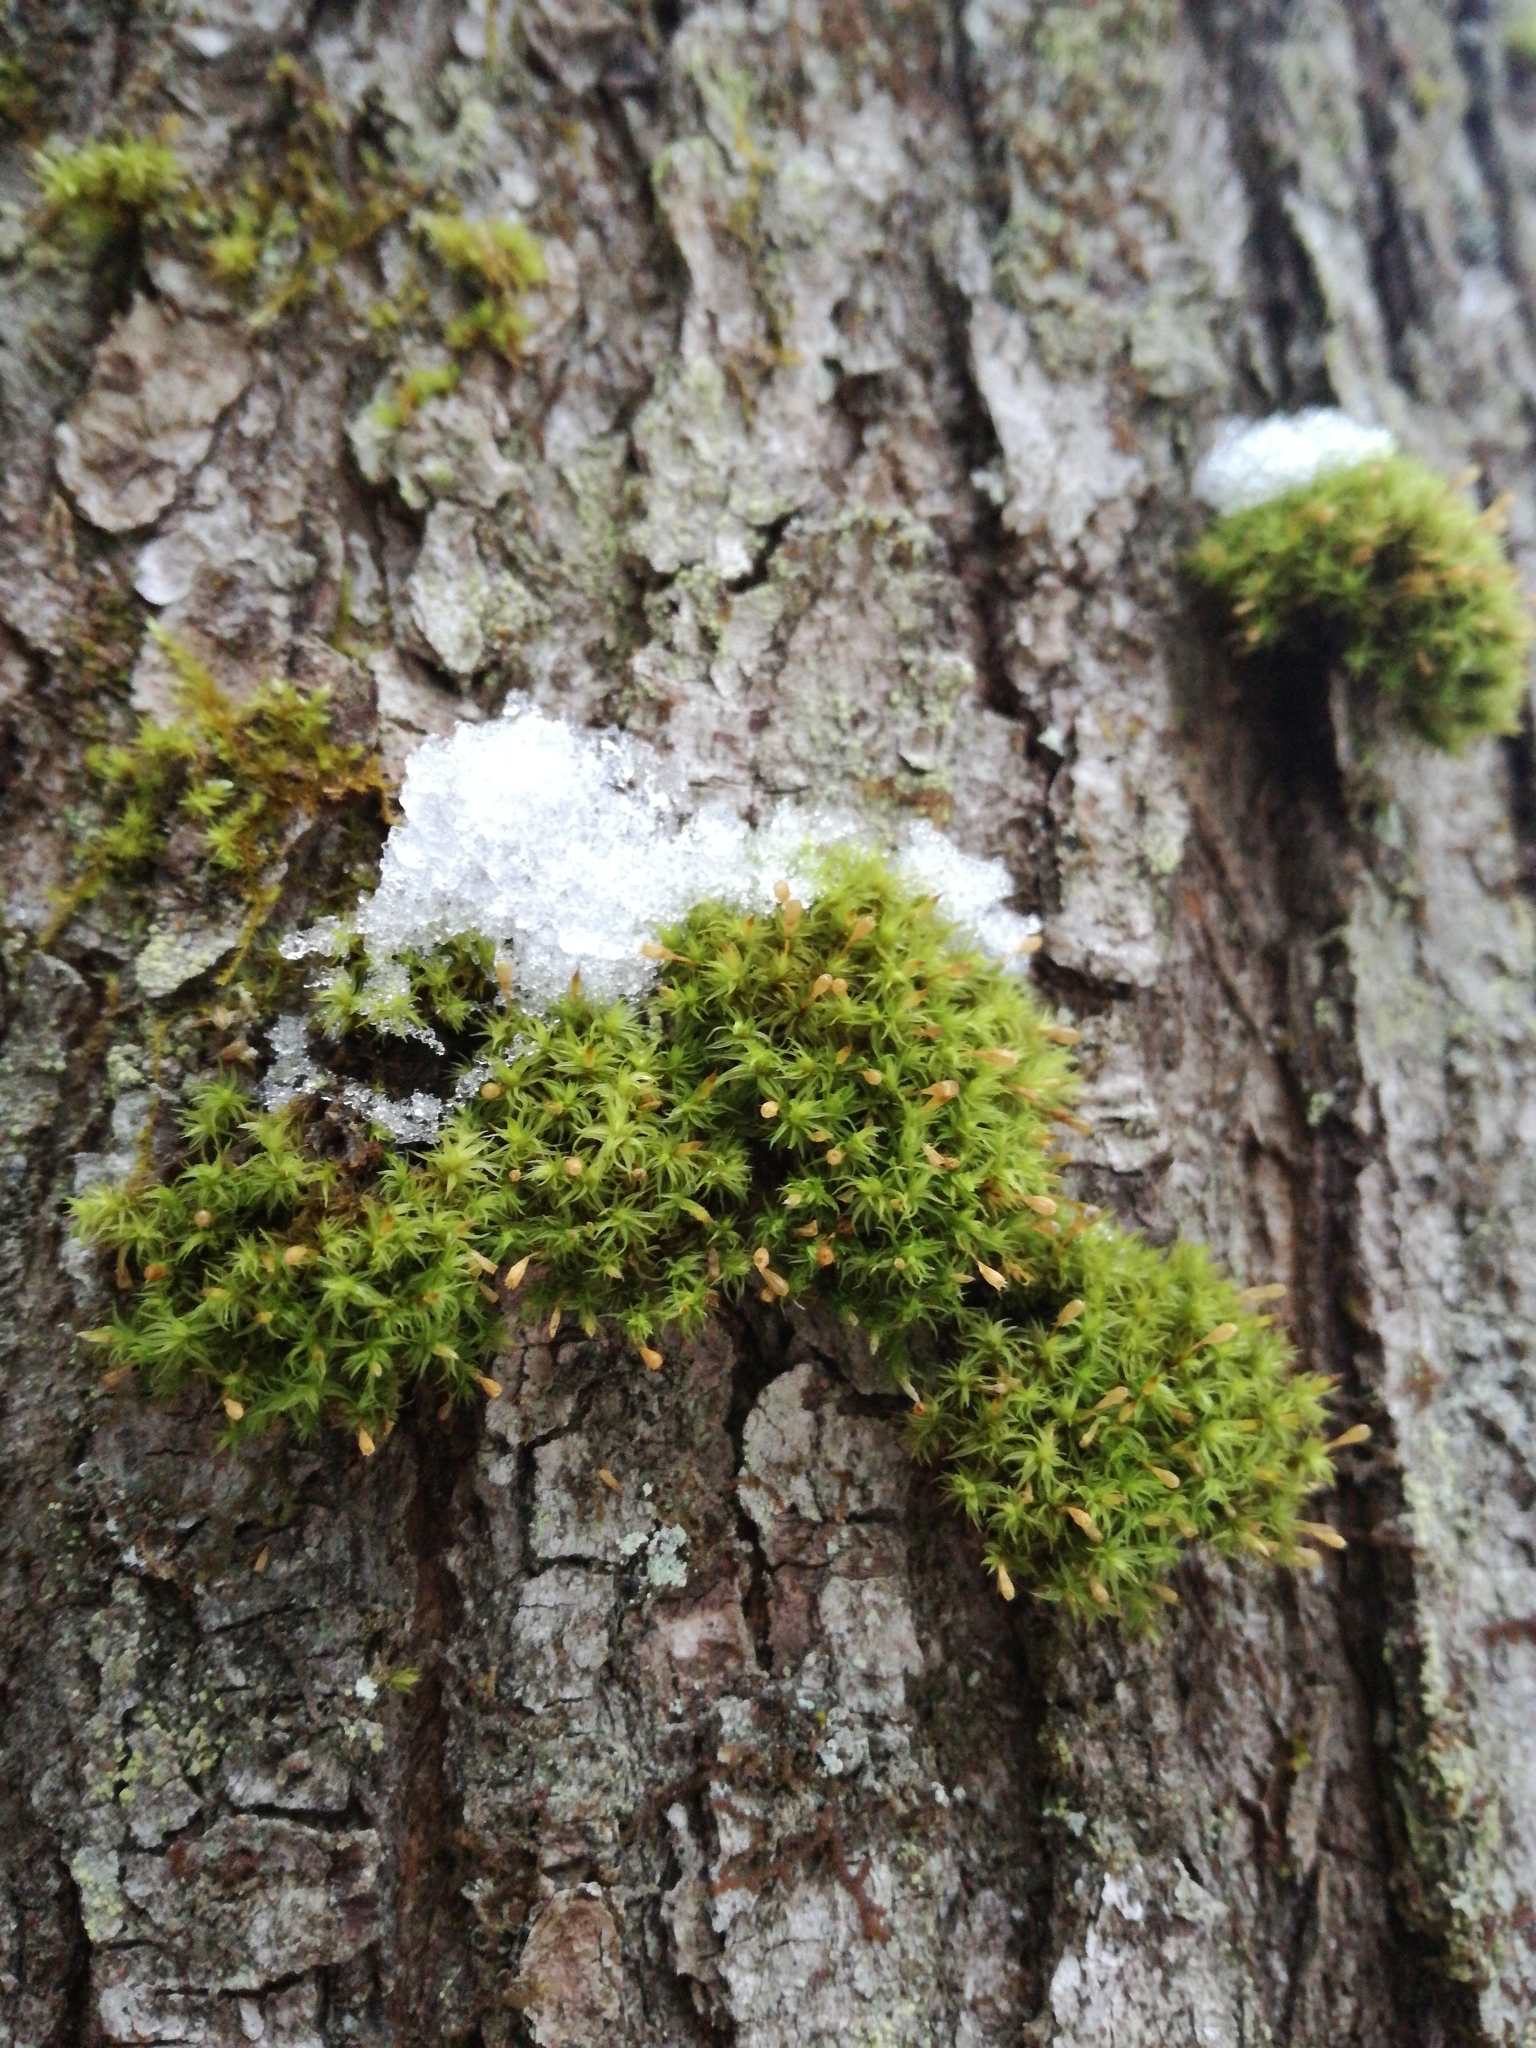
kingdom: Plantae
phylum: Bryophyta
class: Bryopsida
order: Orthotrichales
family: Orthotrichaceae
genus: Ulota
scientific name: Ulota crispa
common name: Crisped pincushion moss
